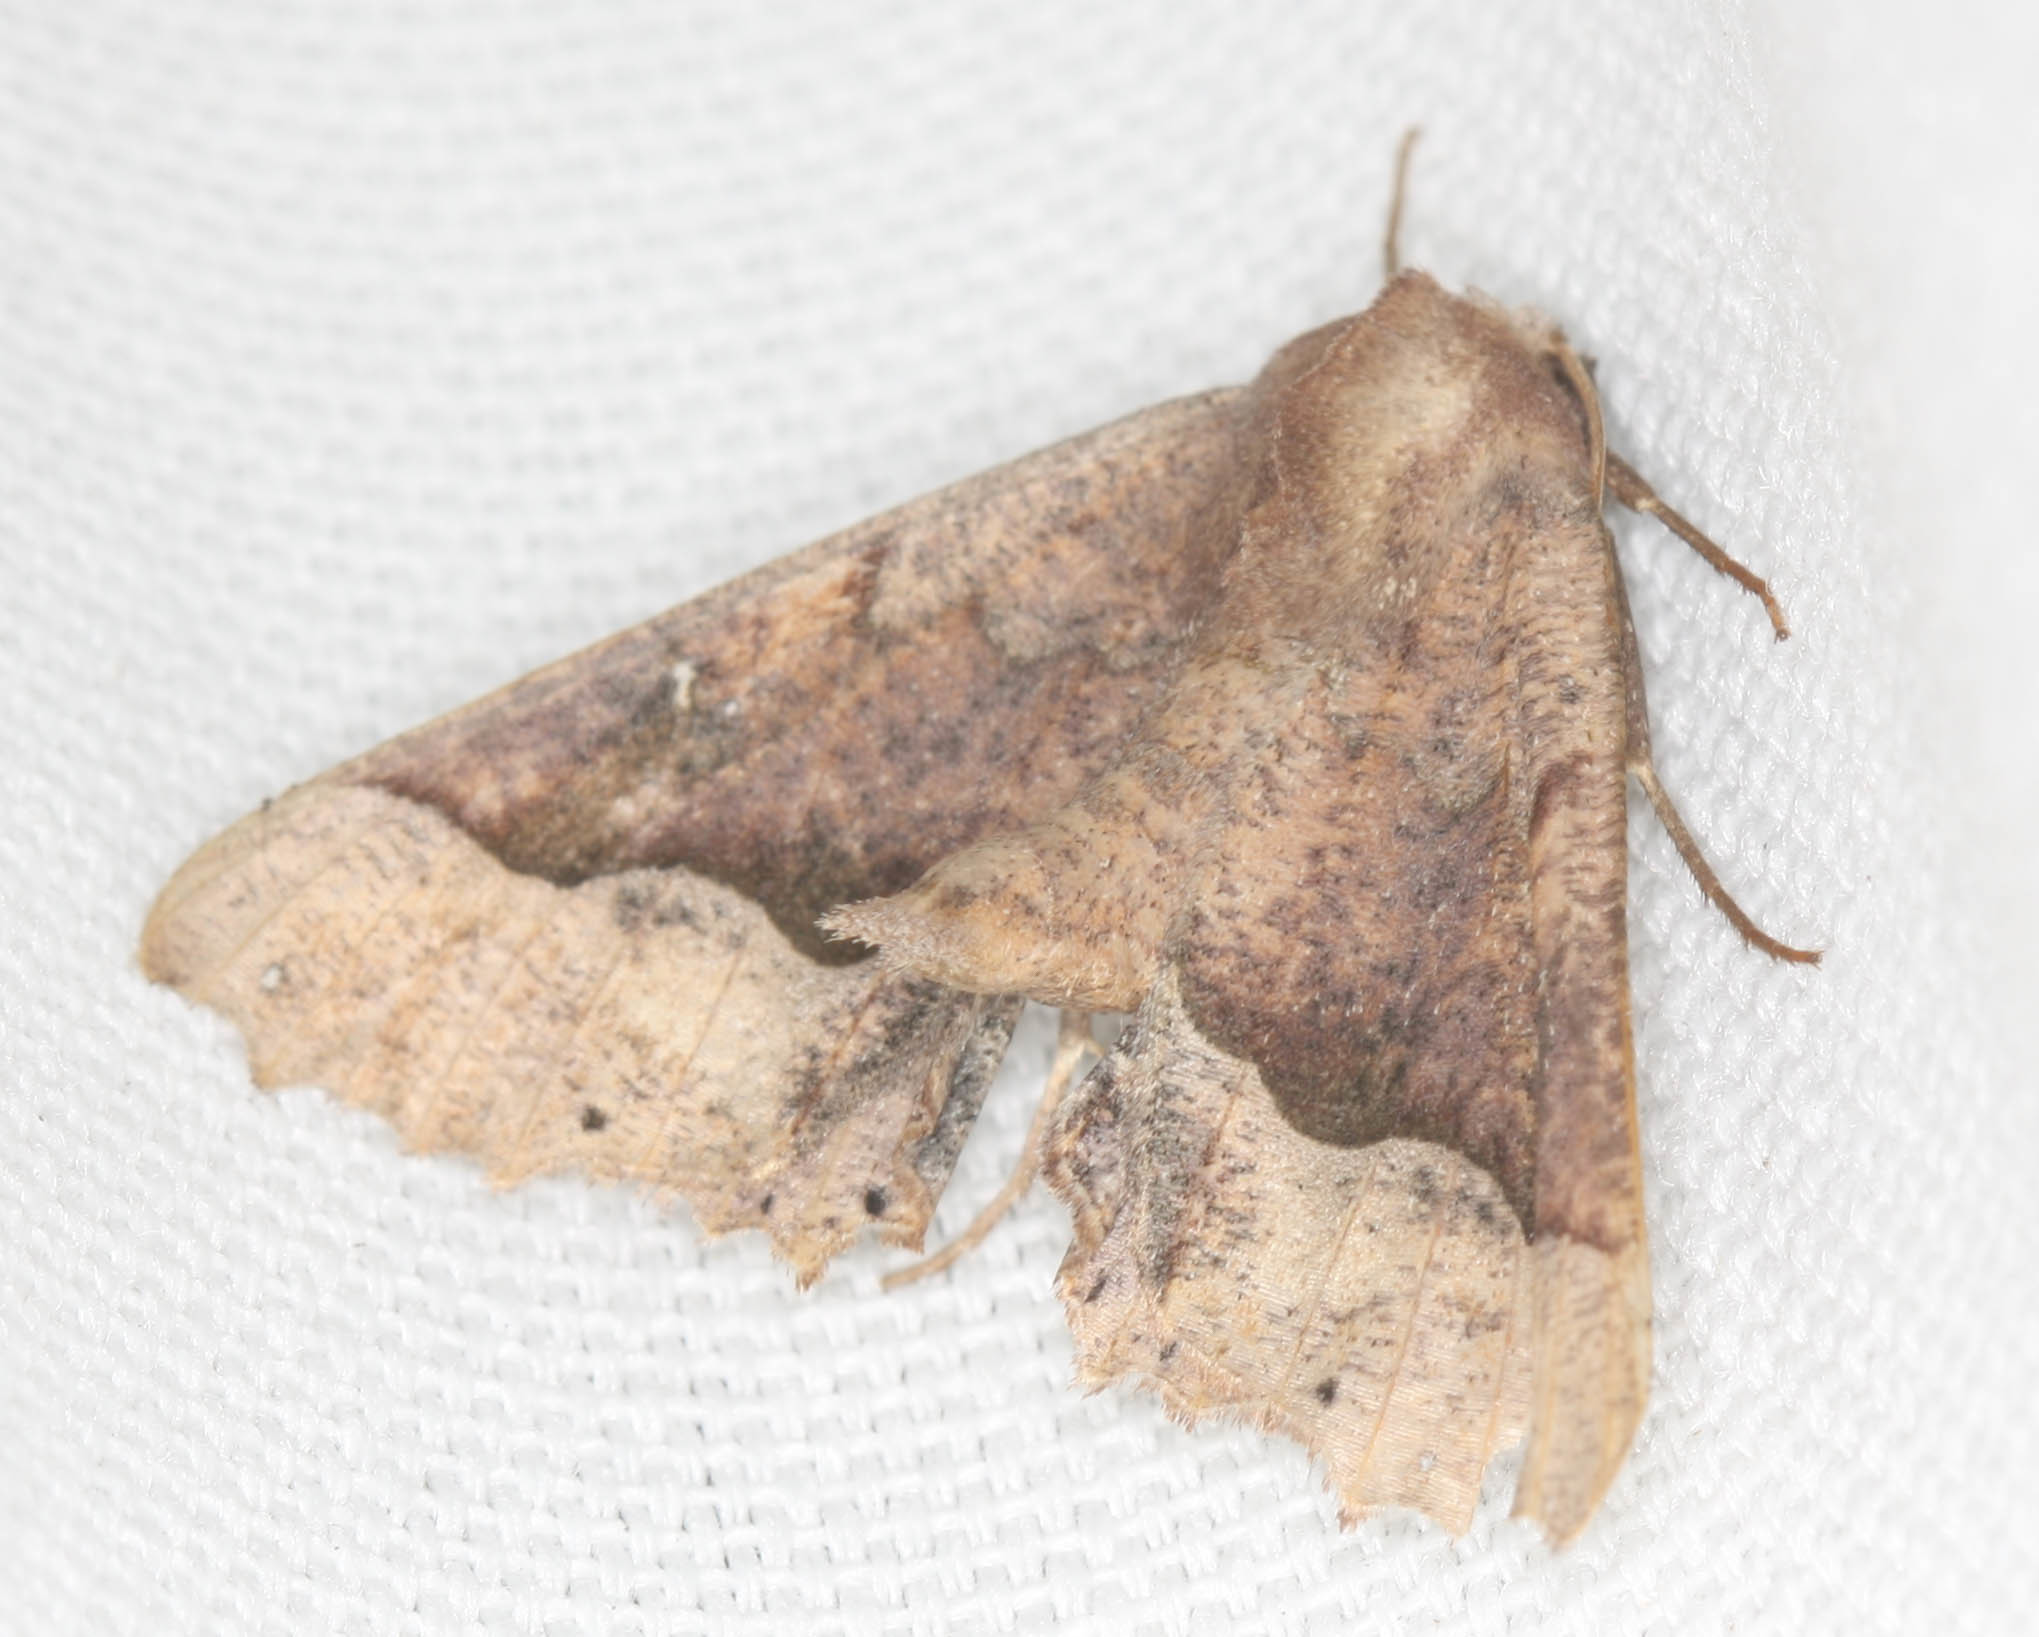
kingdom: Animalia
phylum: Arthropoda
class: Insecta
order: Lepidoptera
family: Geometridae
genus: Pero
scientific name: Pero mizon
